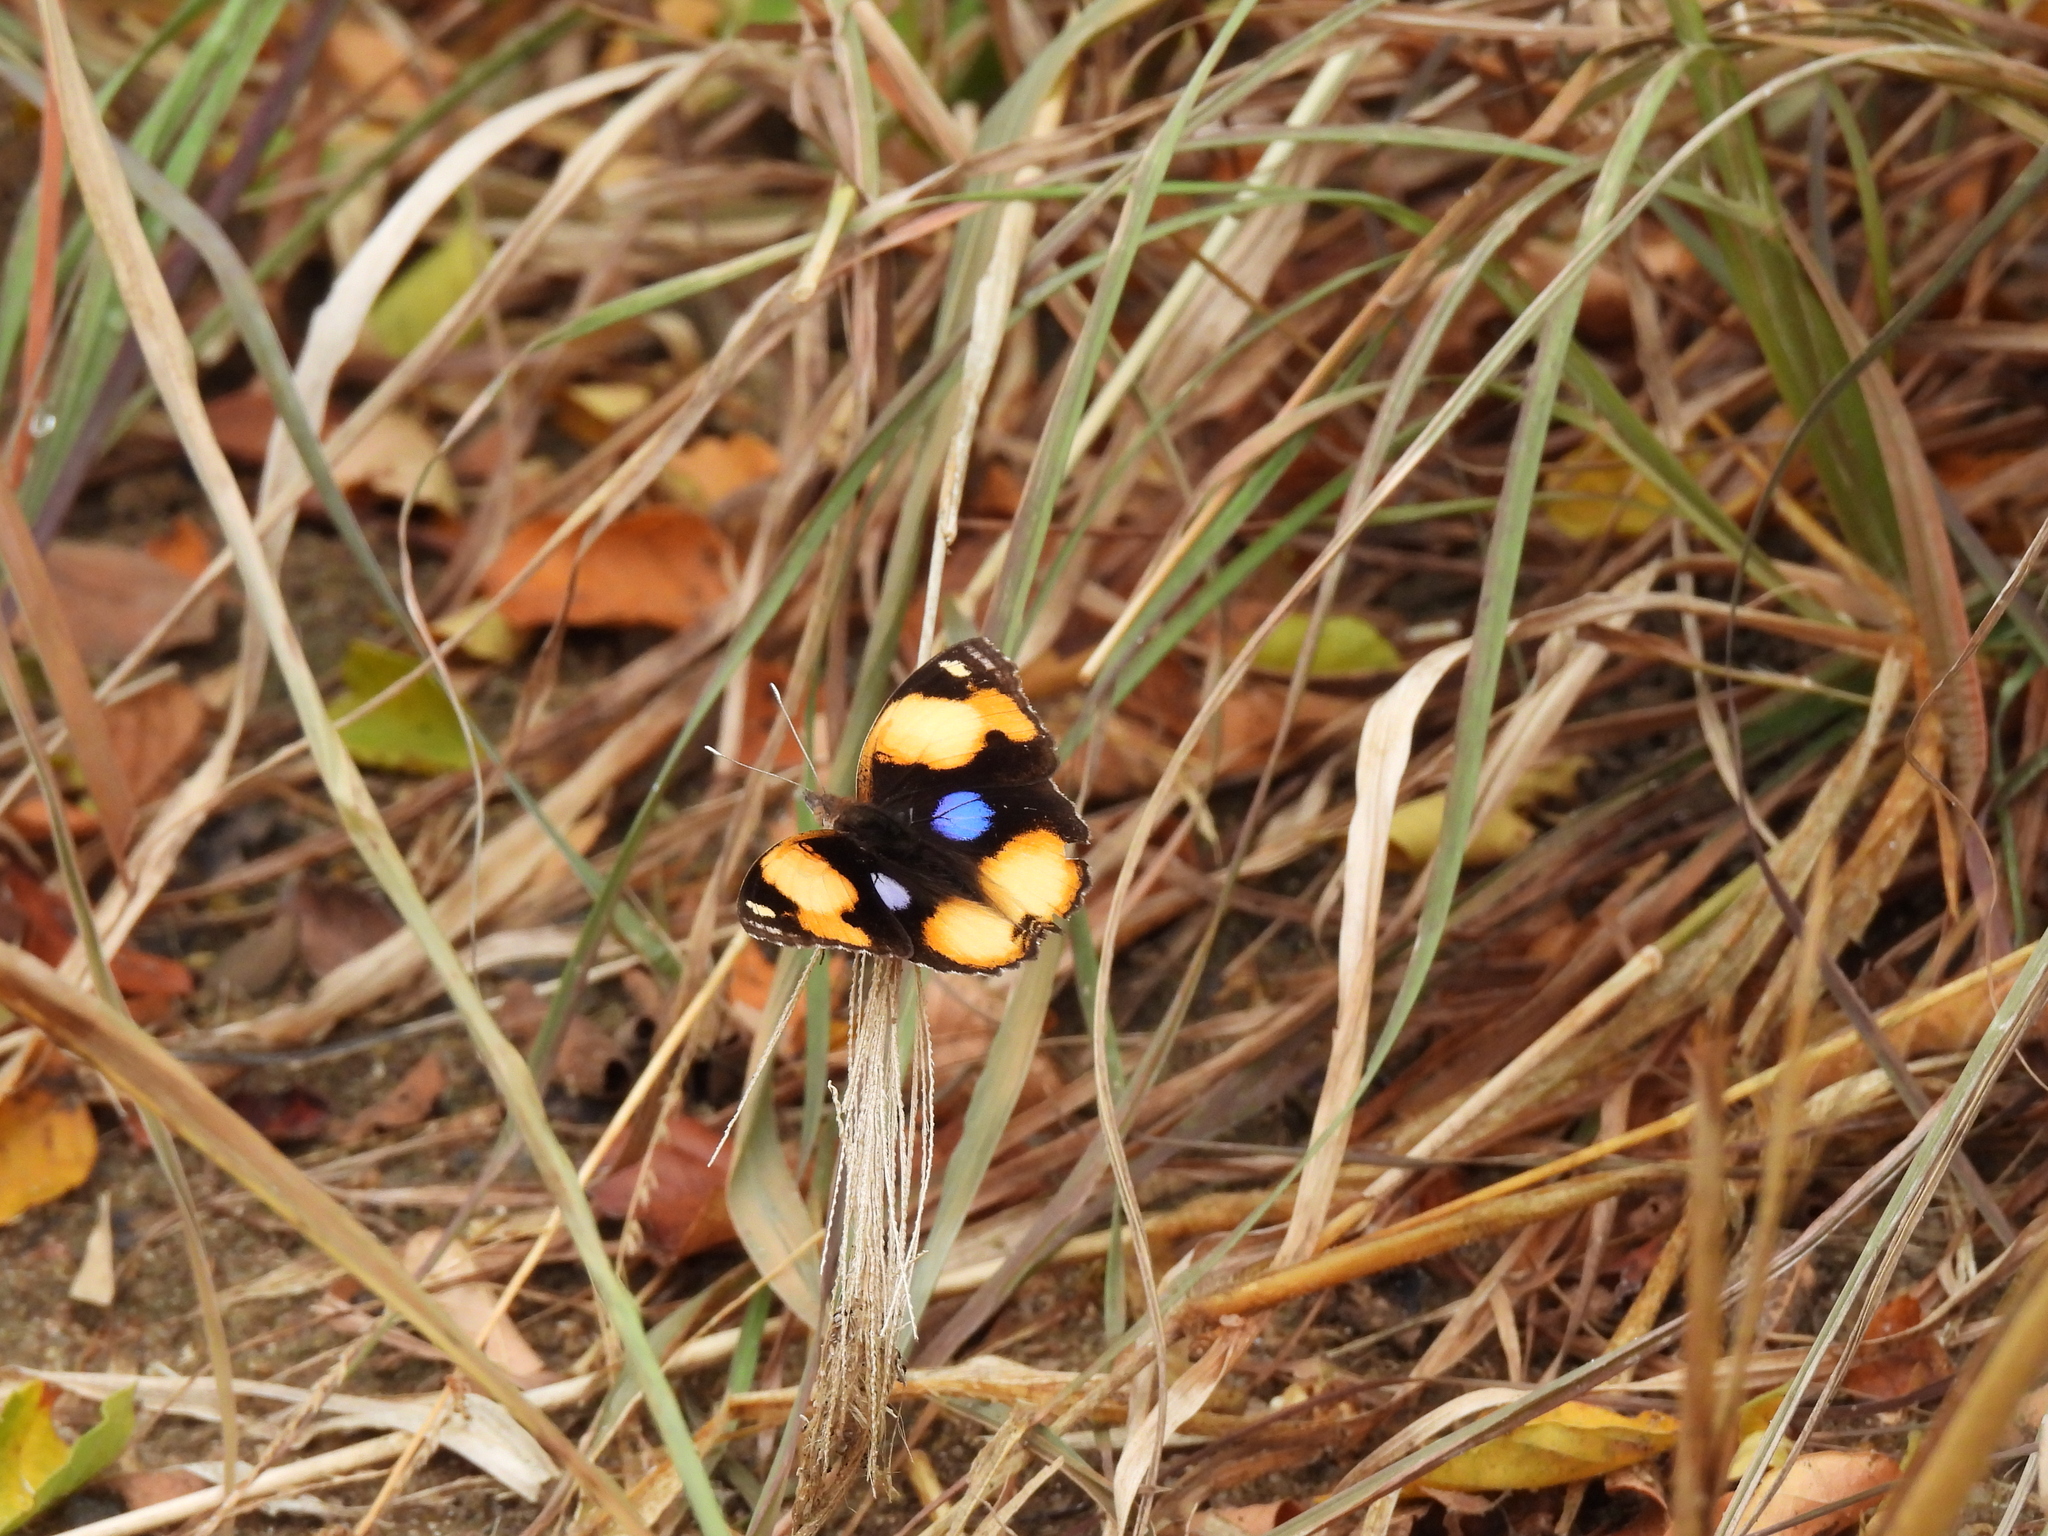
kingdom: Animalia
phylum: Arthropoda
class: Insecta
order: Lepidoptera
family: Nymphalidae
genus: Junonia
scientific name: Junonia hierta
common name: Yellow pansy
